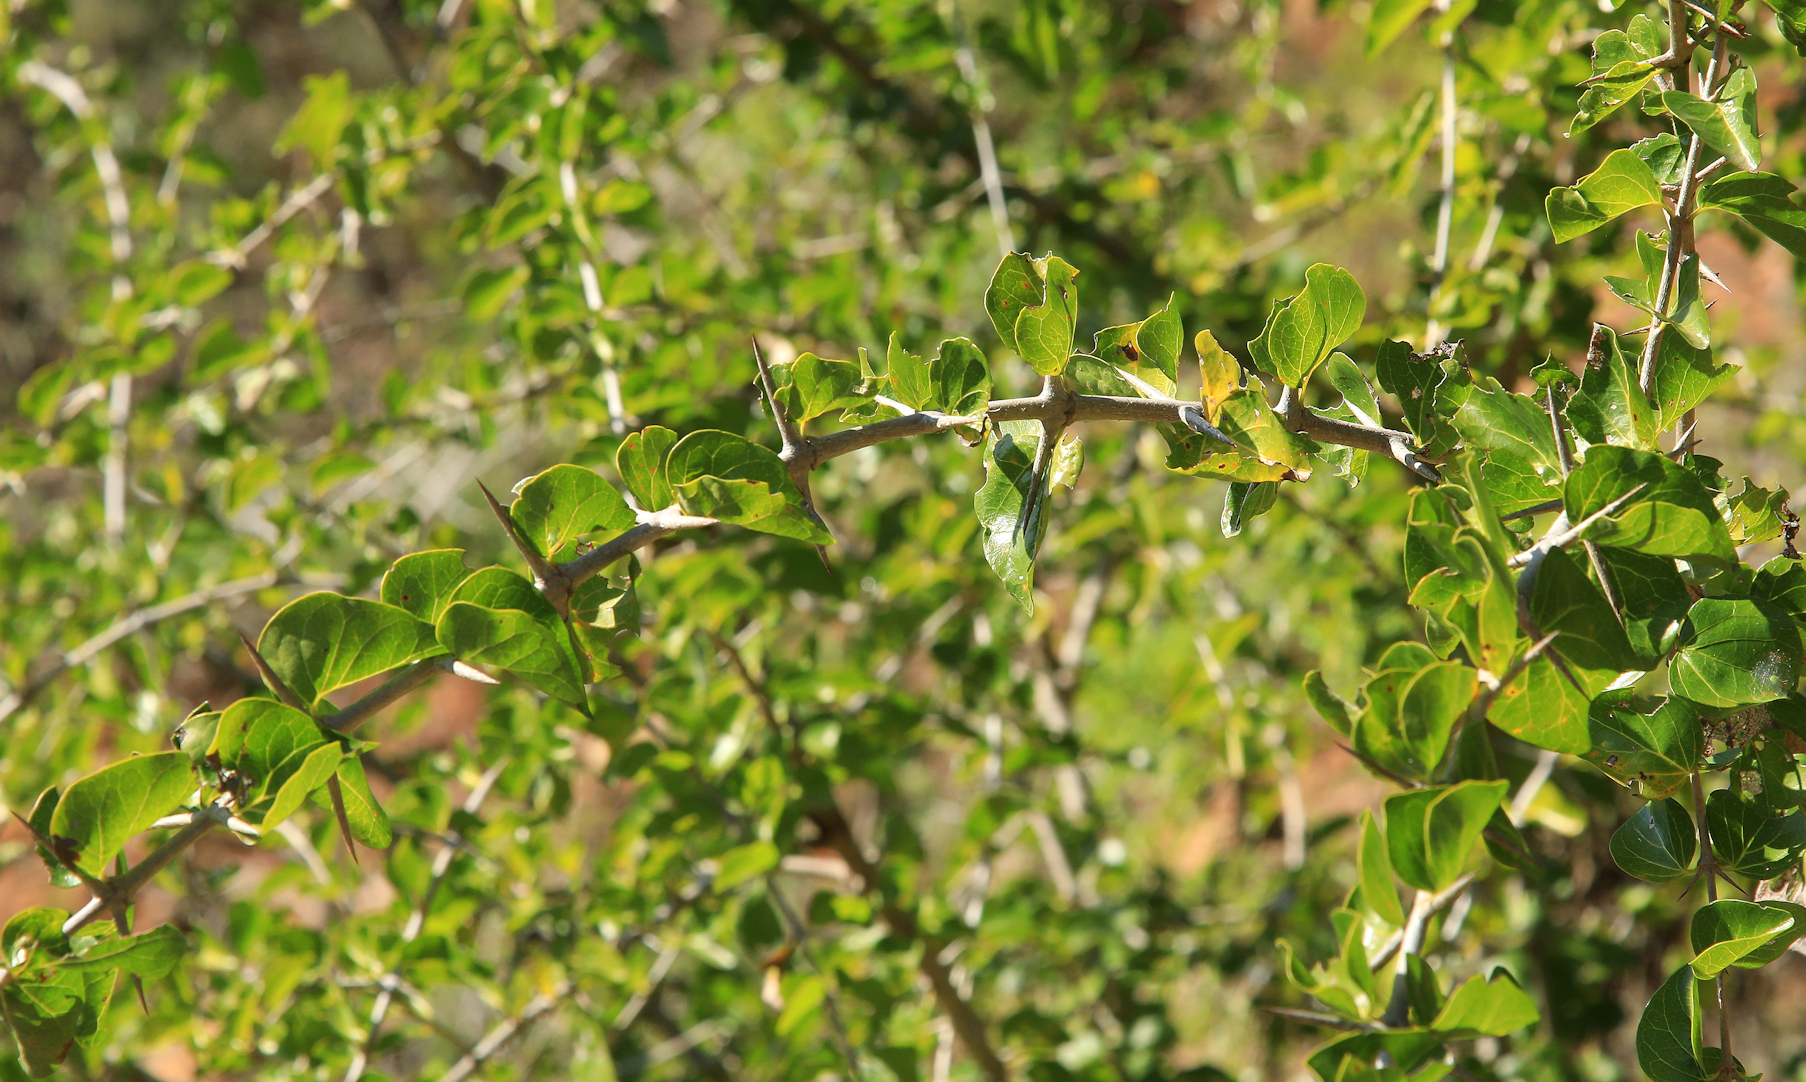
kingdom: Plantae
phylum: Tracheophyta
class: Magnoliopsida
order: Gentianales
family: Rubiaceae
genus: Plectroniella
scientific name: Plectroniella armata
